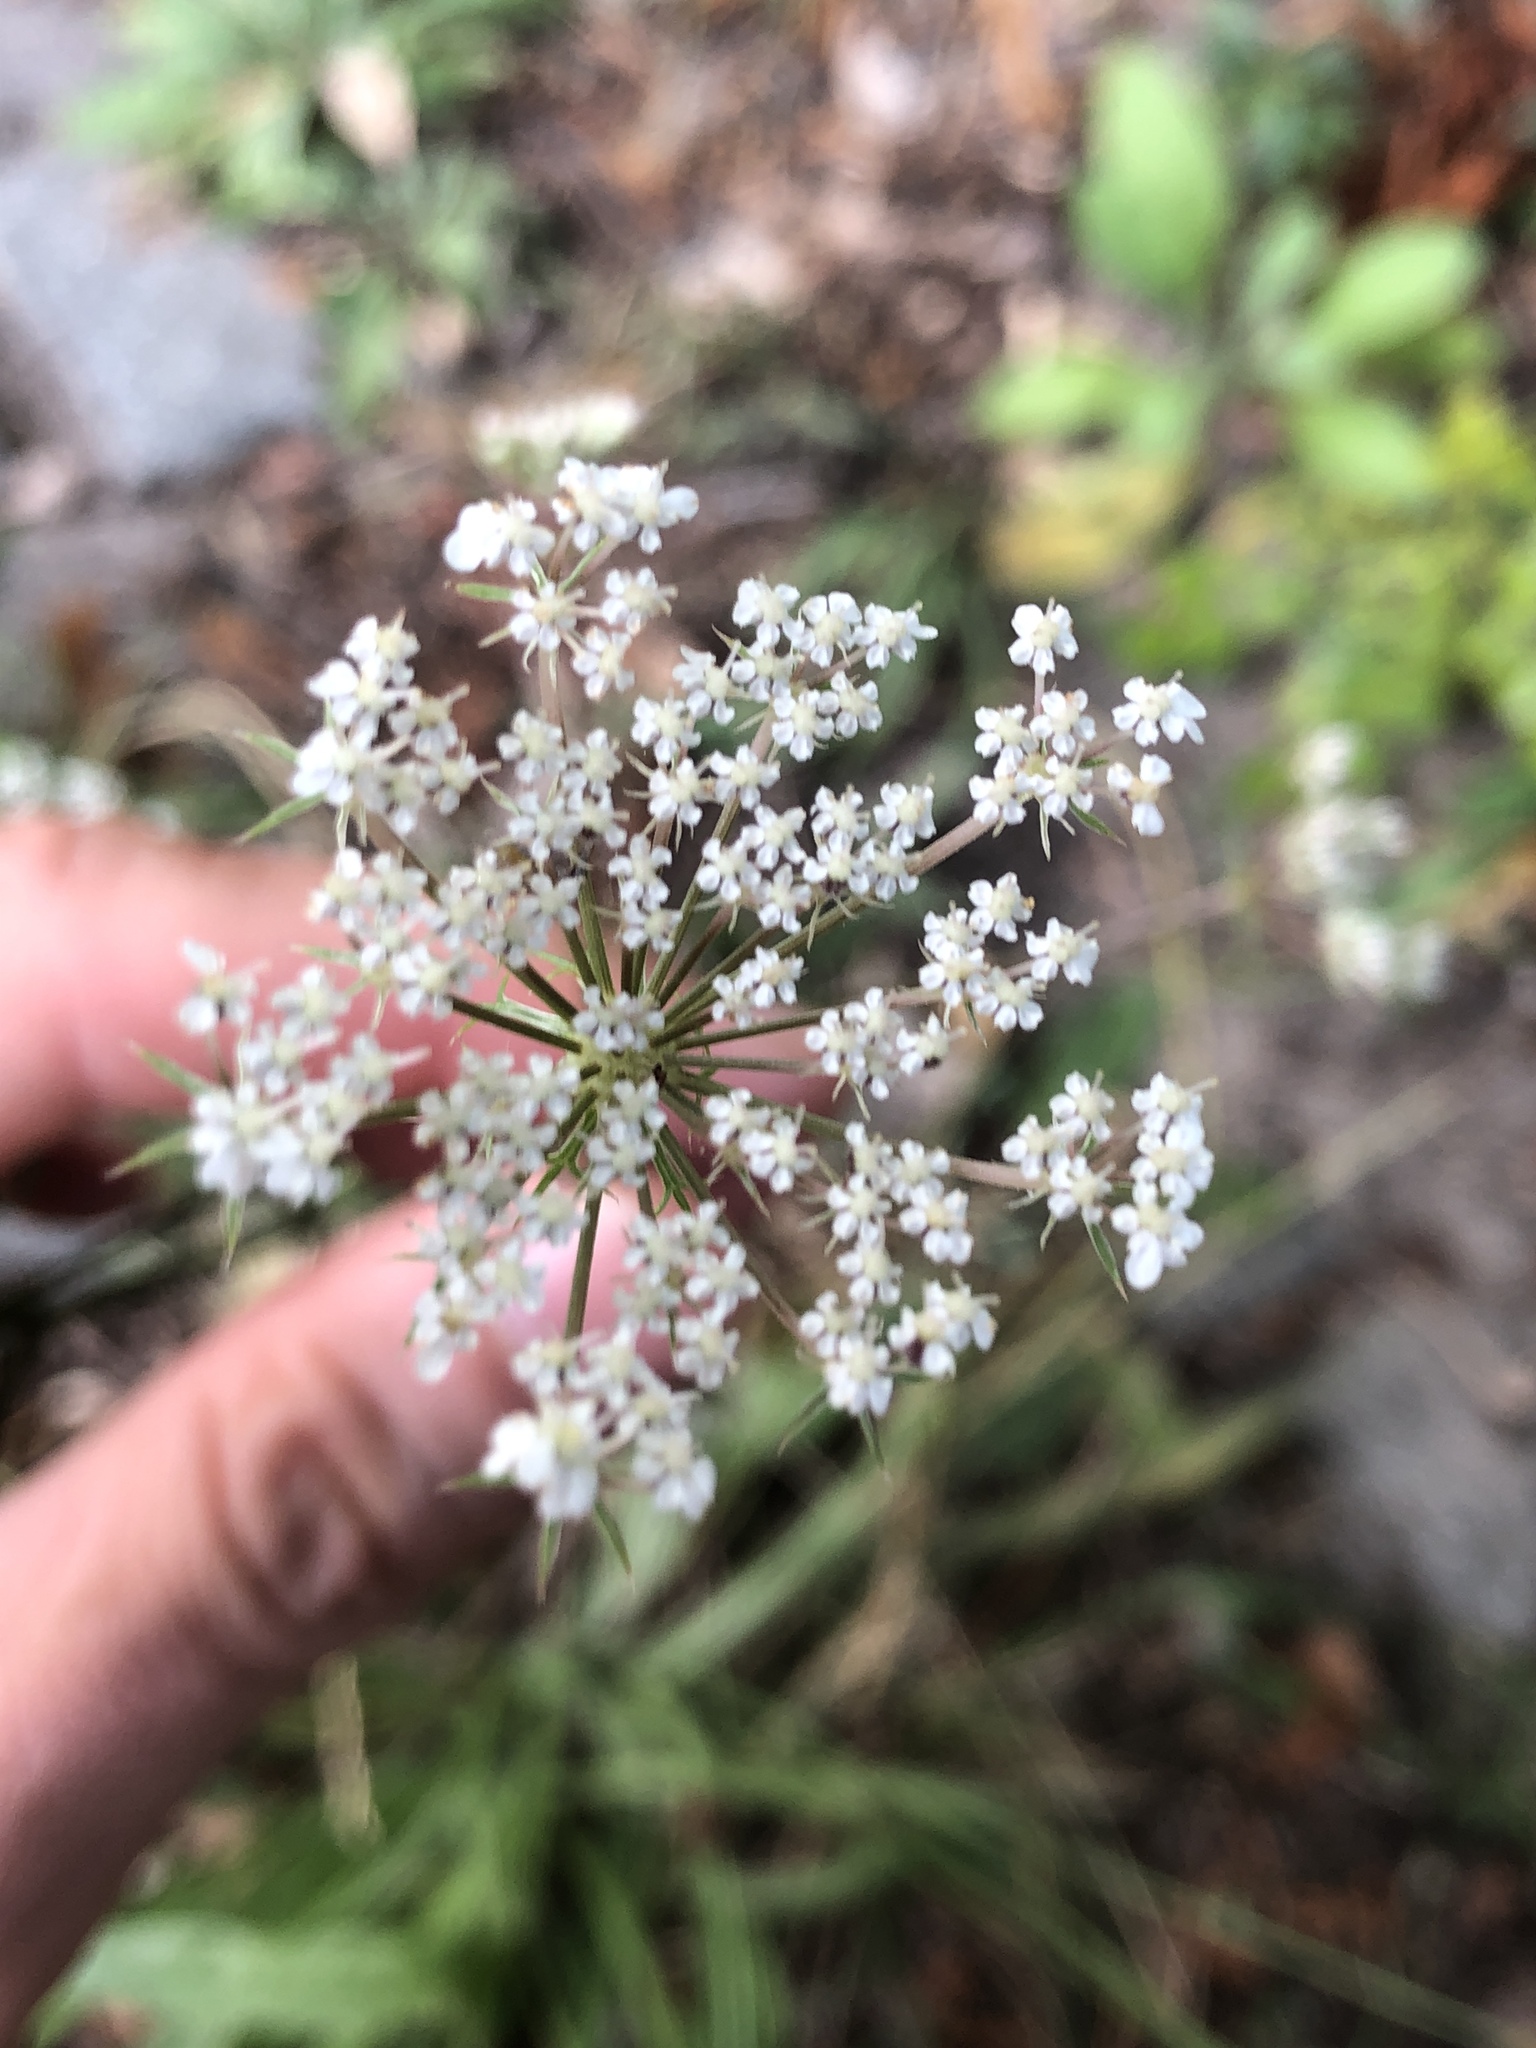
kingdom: Plantae
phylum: Tracheophyta
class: Magnoliopsida
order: Apiales
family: Apiaceae
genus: Daucus
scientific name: Daucus carota
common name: Wild carrot
